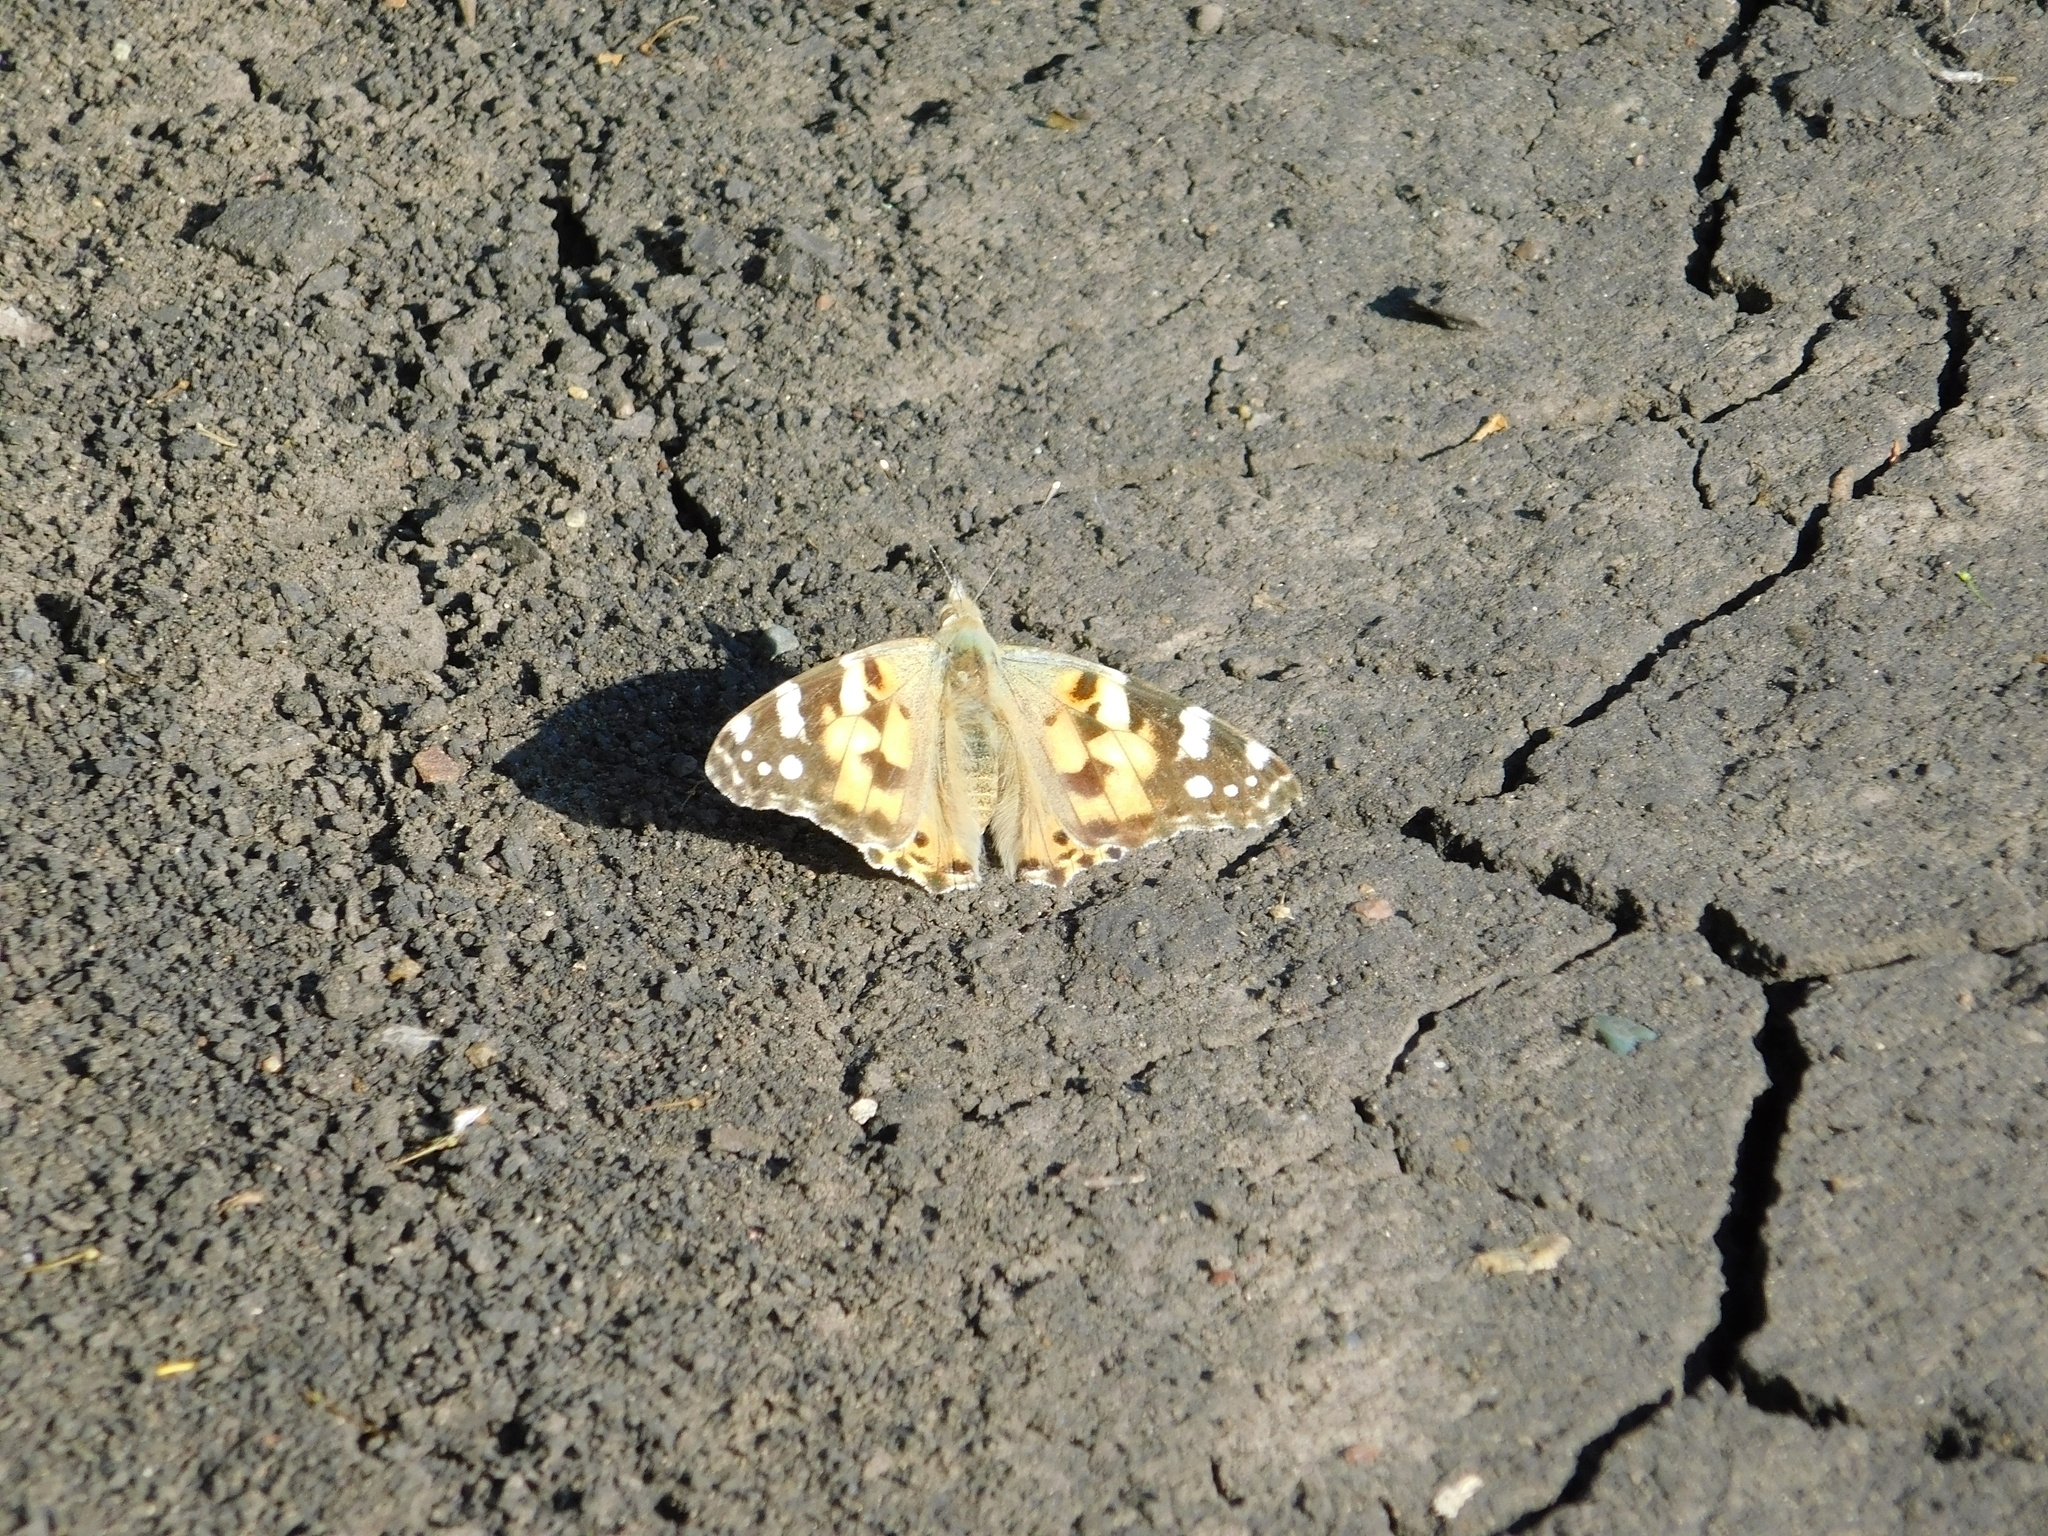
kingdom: Animalia
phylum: Arthropoda
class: Insecta
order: Lepidoptera
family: Nymphalidae
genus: Vanessa
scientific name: Vanessa cardui
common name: Painted lady
